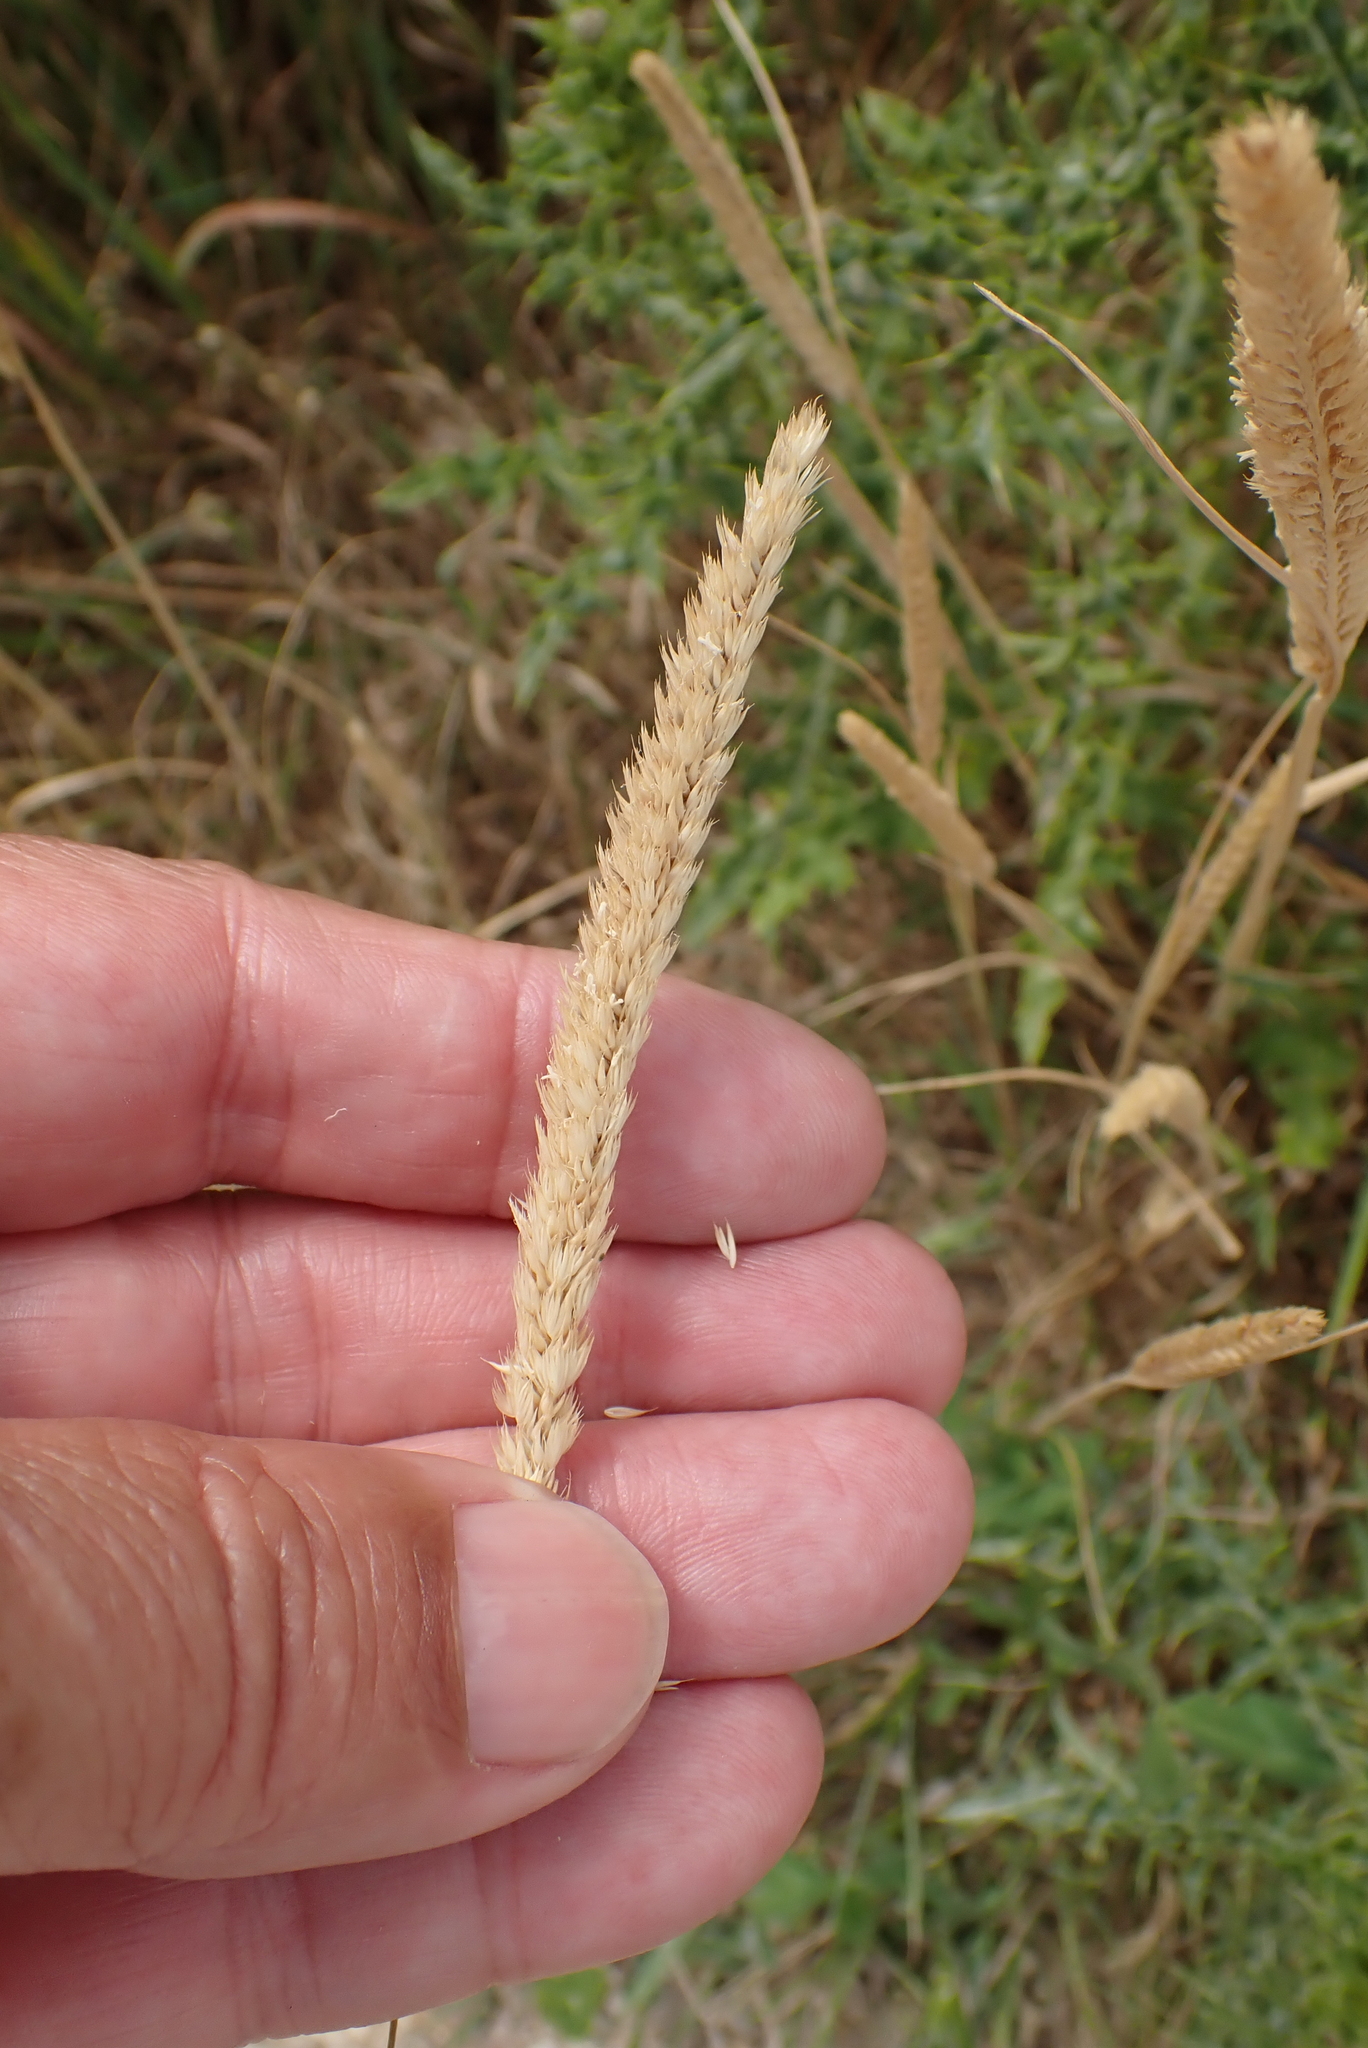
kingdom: Plantae
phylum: Tracheophyta
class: Liliopsida
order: Poales
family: Poaceae
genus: Cynosurus
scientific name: Cynosurus cristatus
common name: Crested dog's-tail
